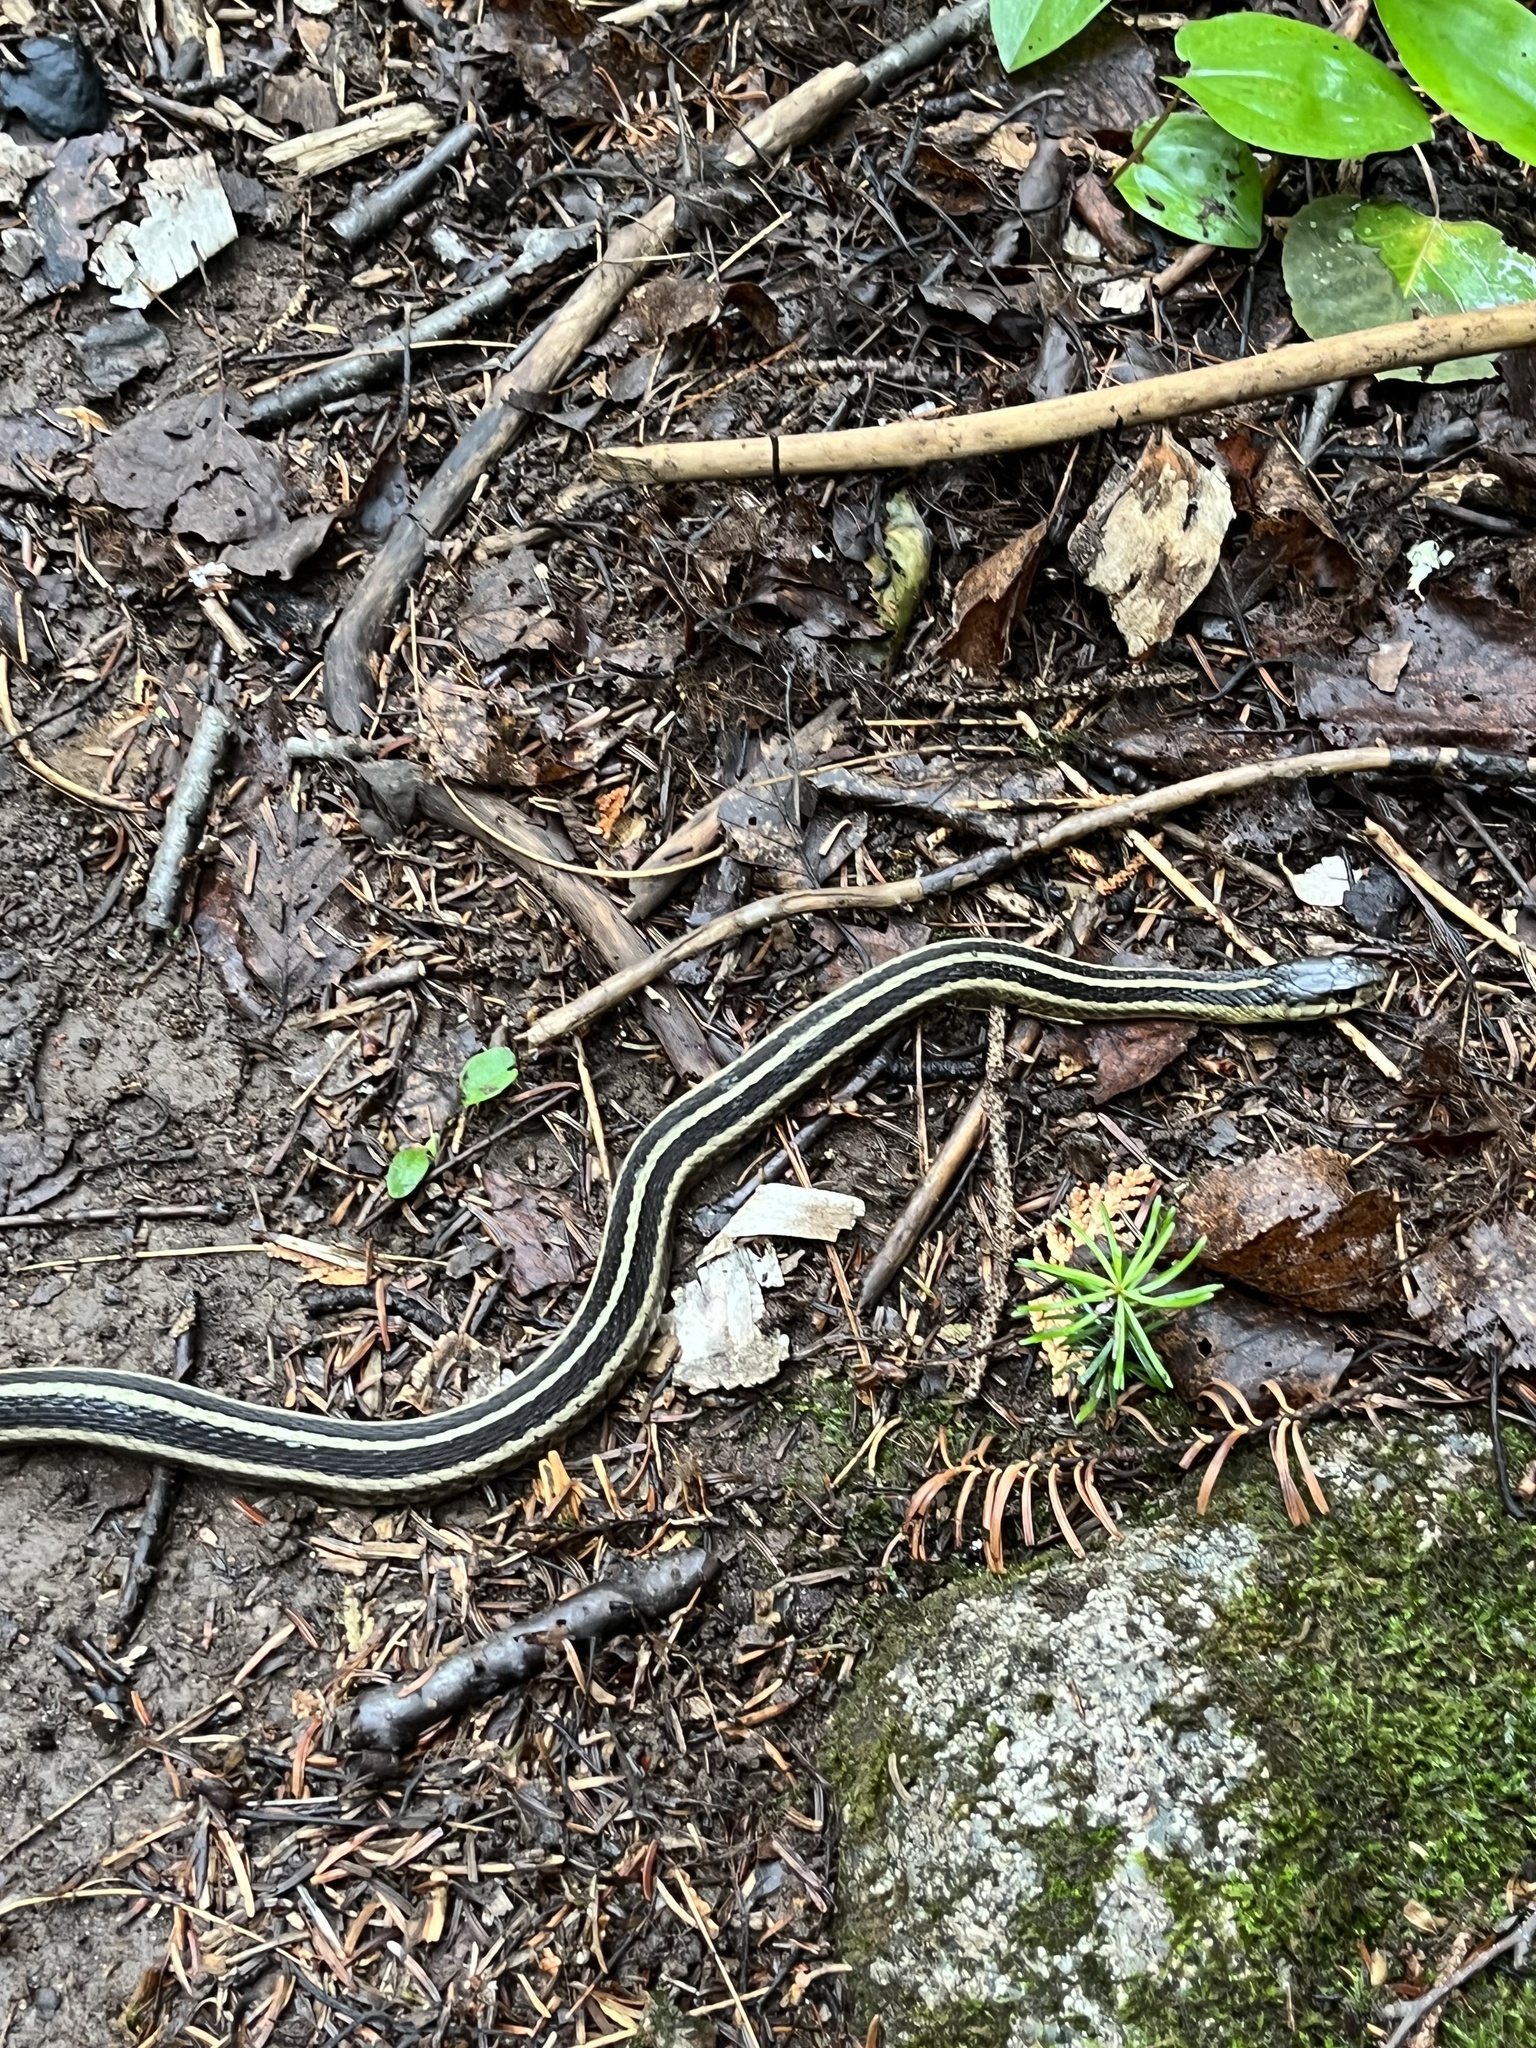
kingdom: Animalia
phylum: Chordata
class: Squamata
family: Colubridae
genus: Thamnophis
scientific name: Thamnophis sirtalis
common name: Common garter snake
